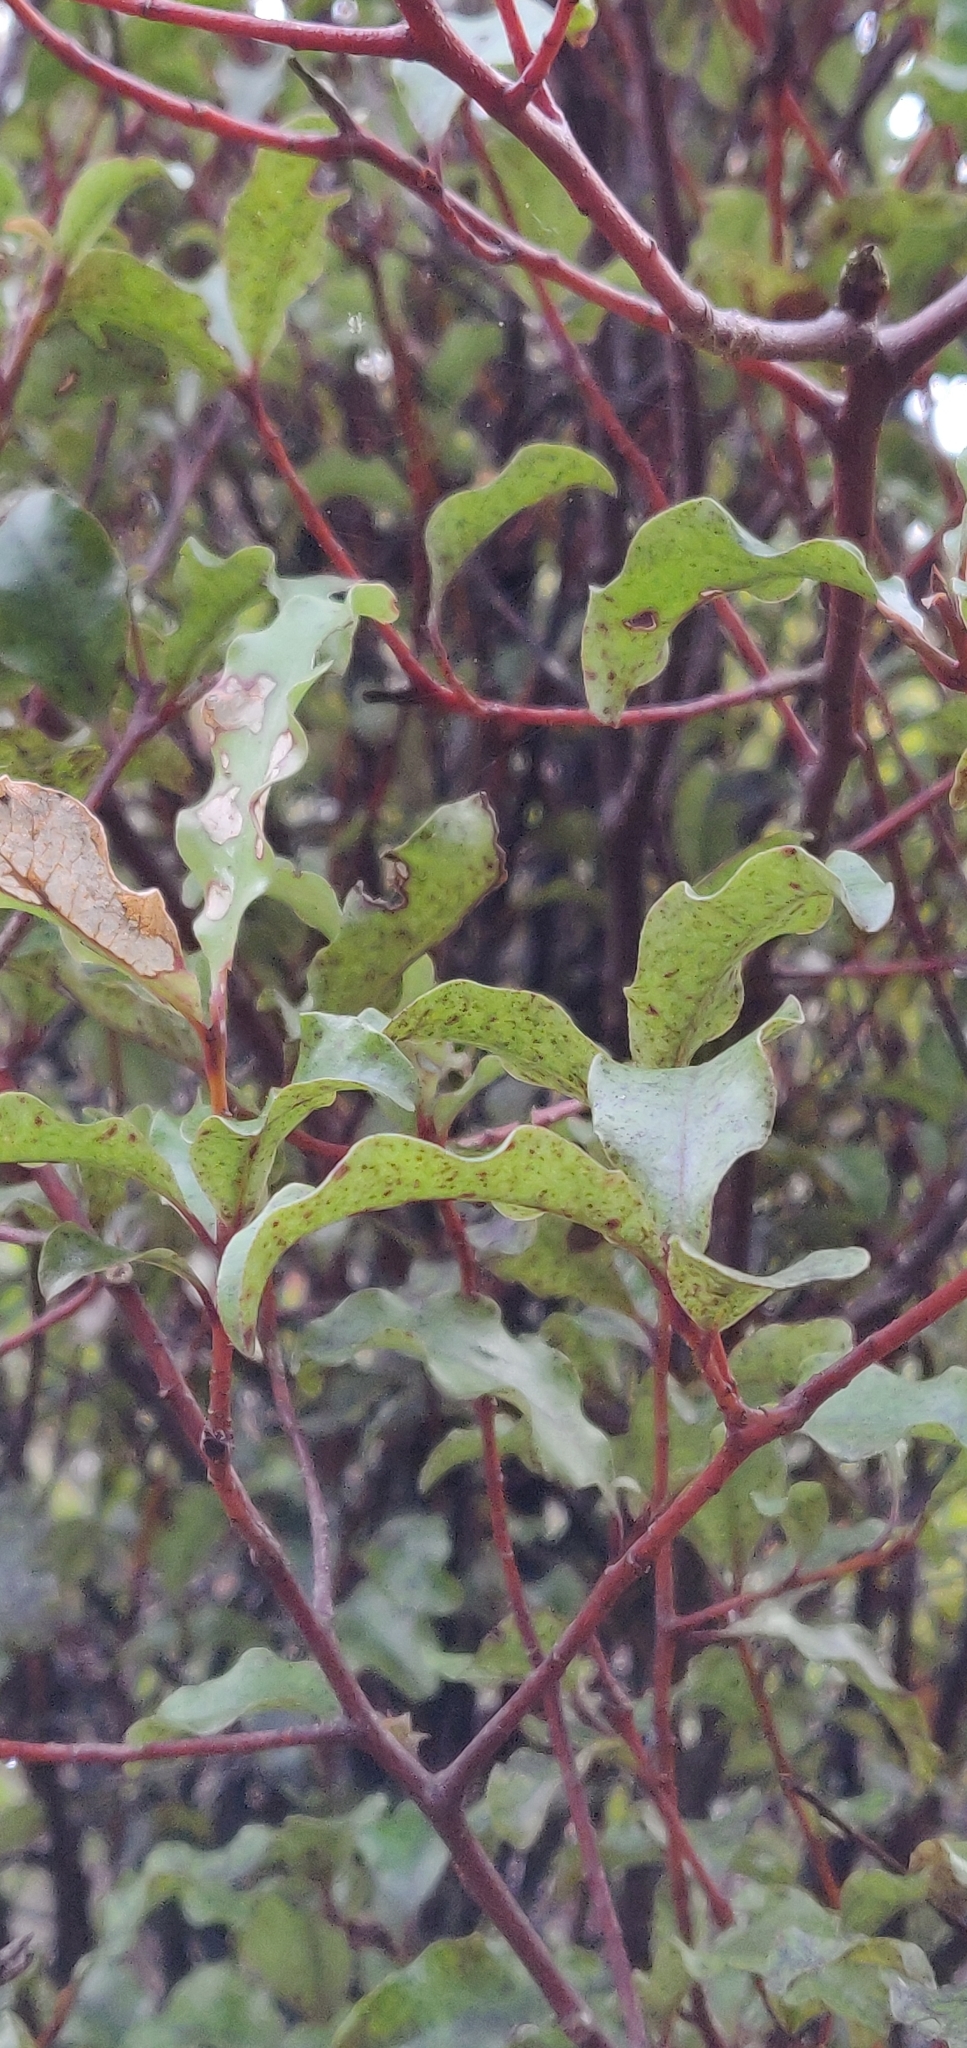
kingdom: Plantae
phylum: Tracheophyta
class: Magnoliopsida
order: Ericales
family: Primulaceae
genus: Myrsine
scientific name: Myrsine australis
